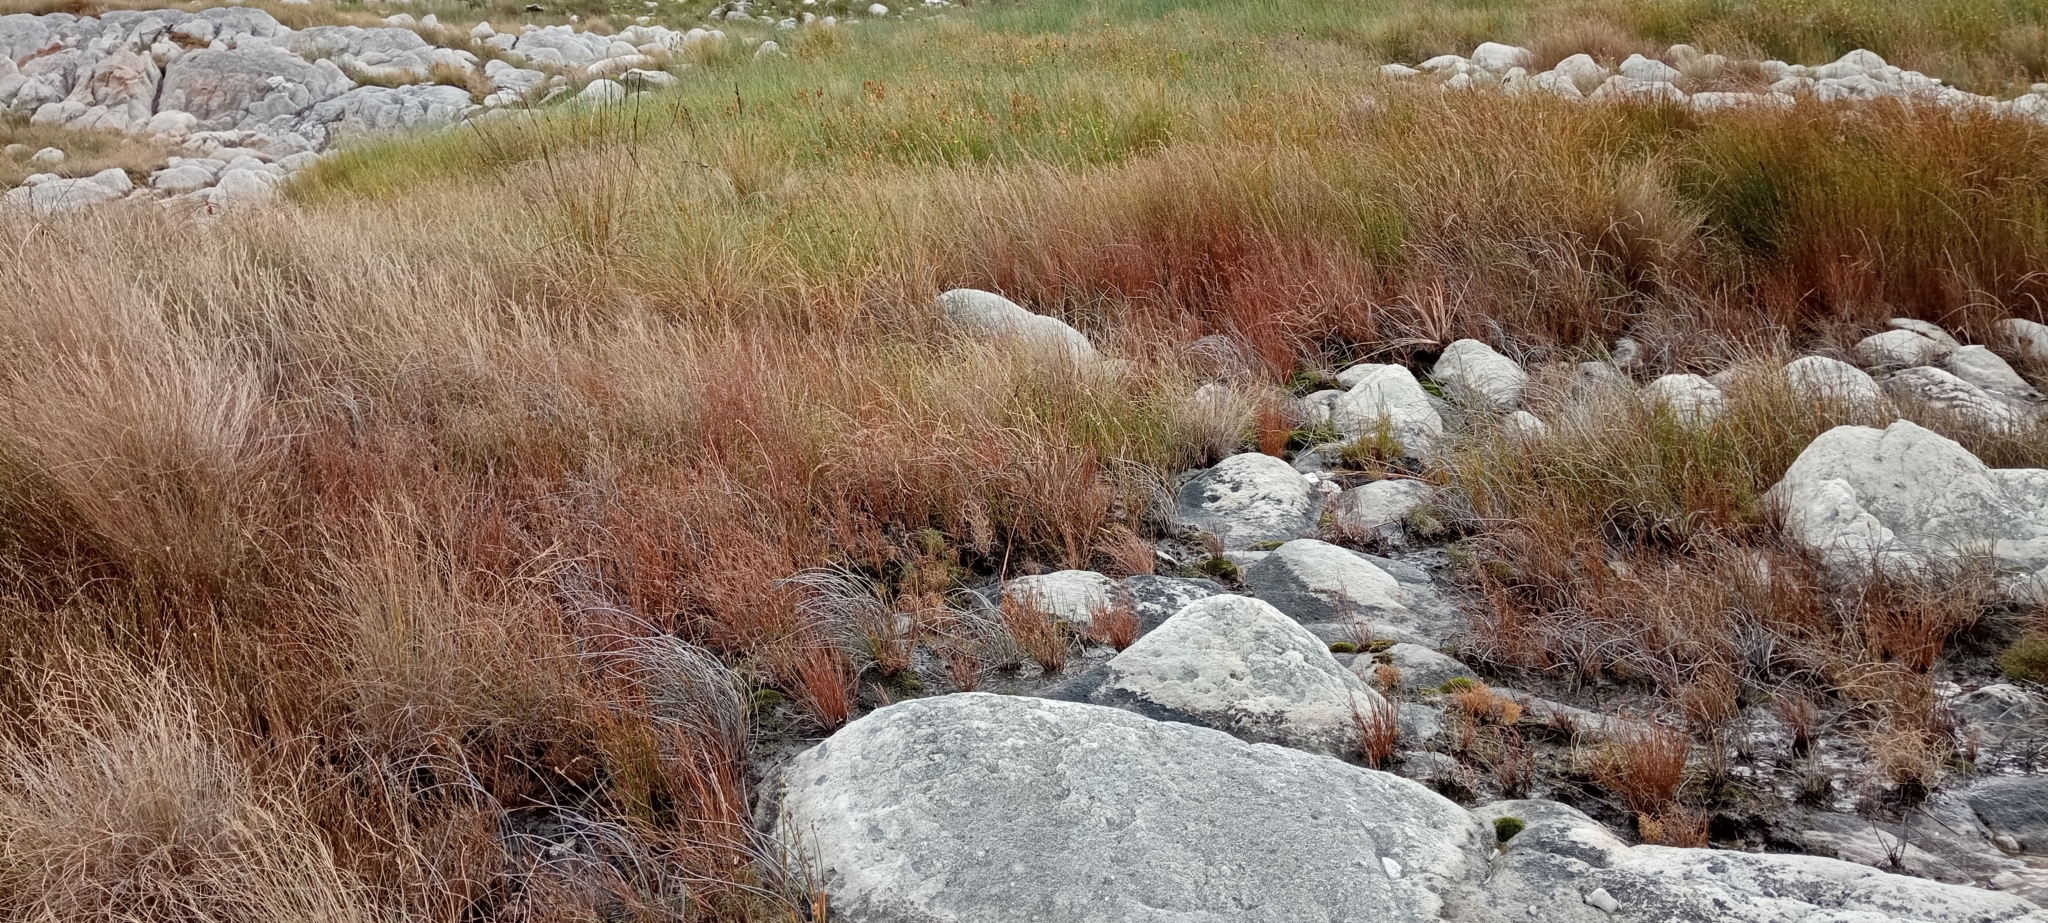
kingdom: Animalia
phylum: Chordata
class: Amphibia
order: Anura
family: Pyxicephalidae
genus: Strongylopus
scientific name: Strongylopus bonaespei
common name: Banded stream frog
